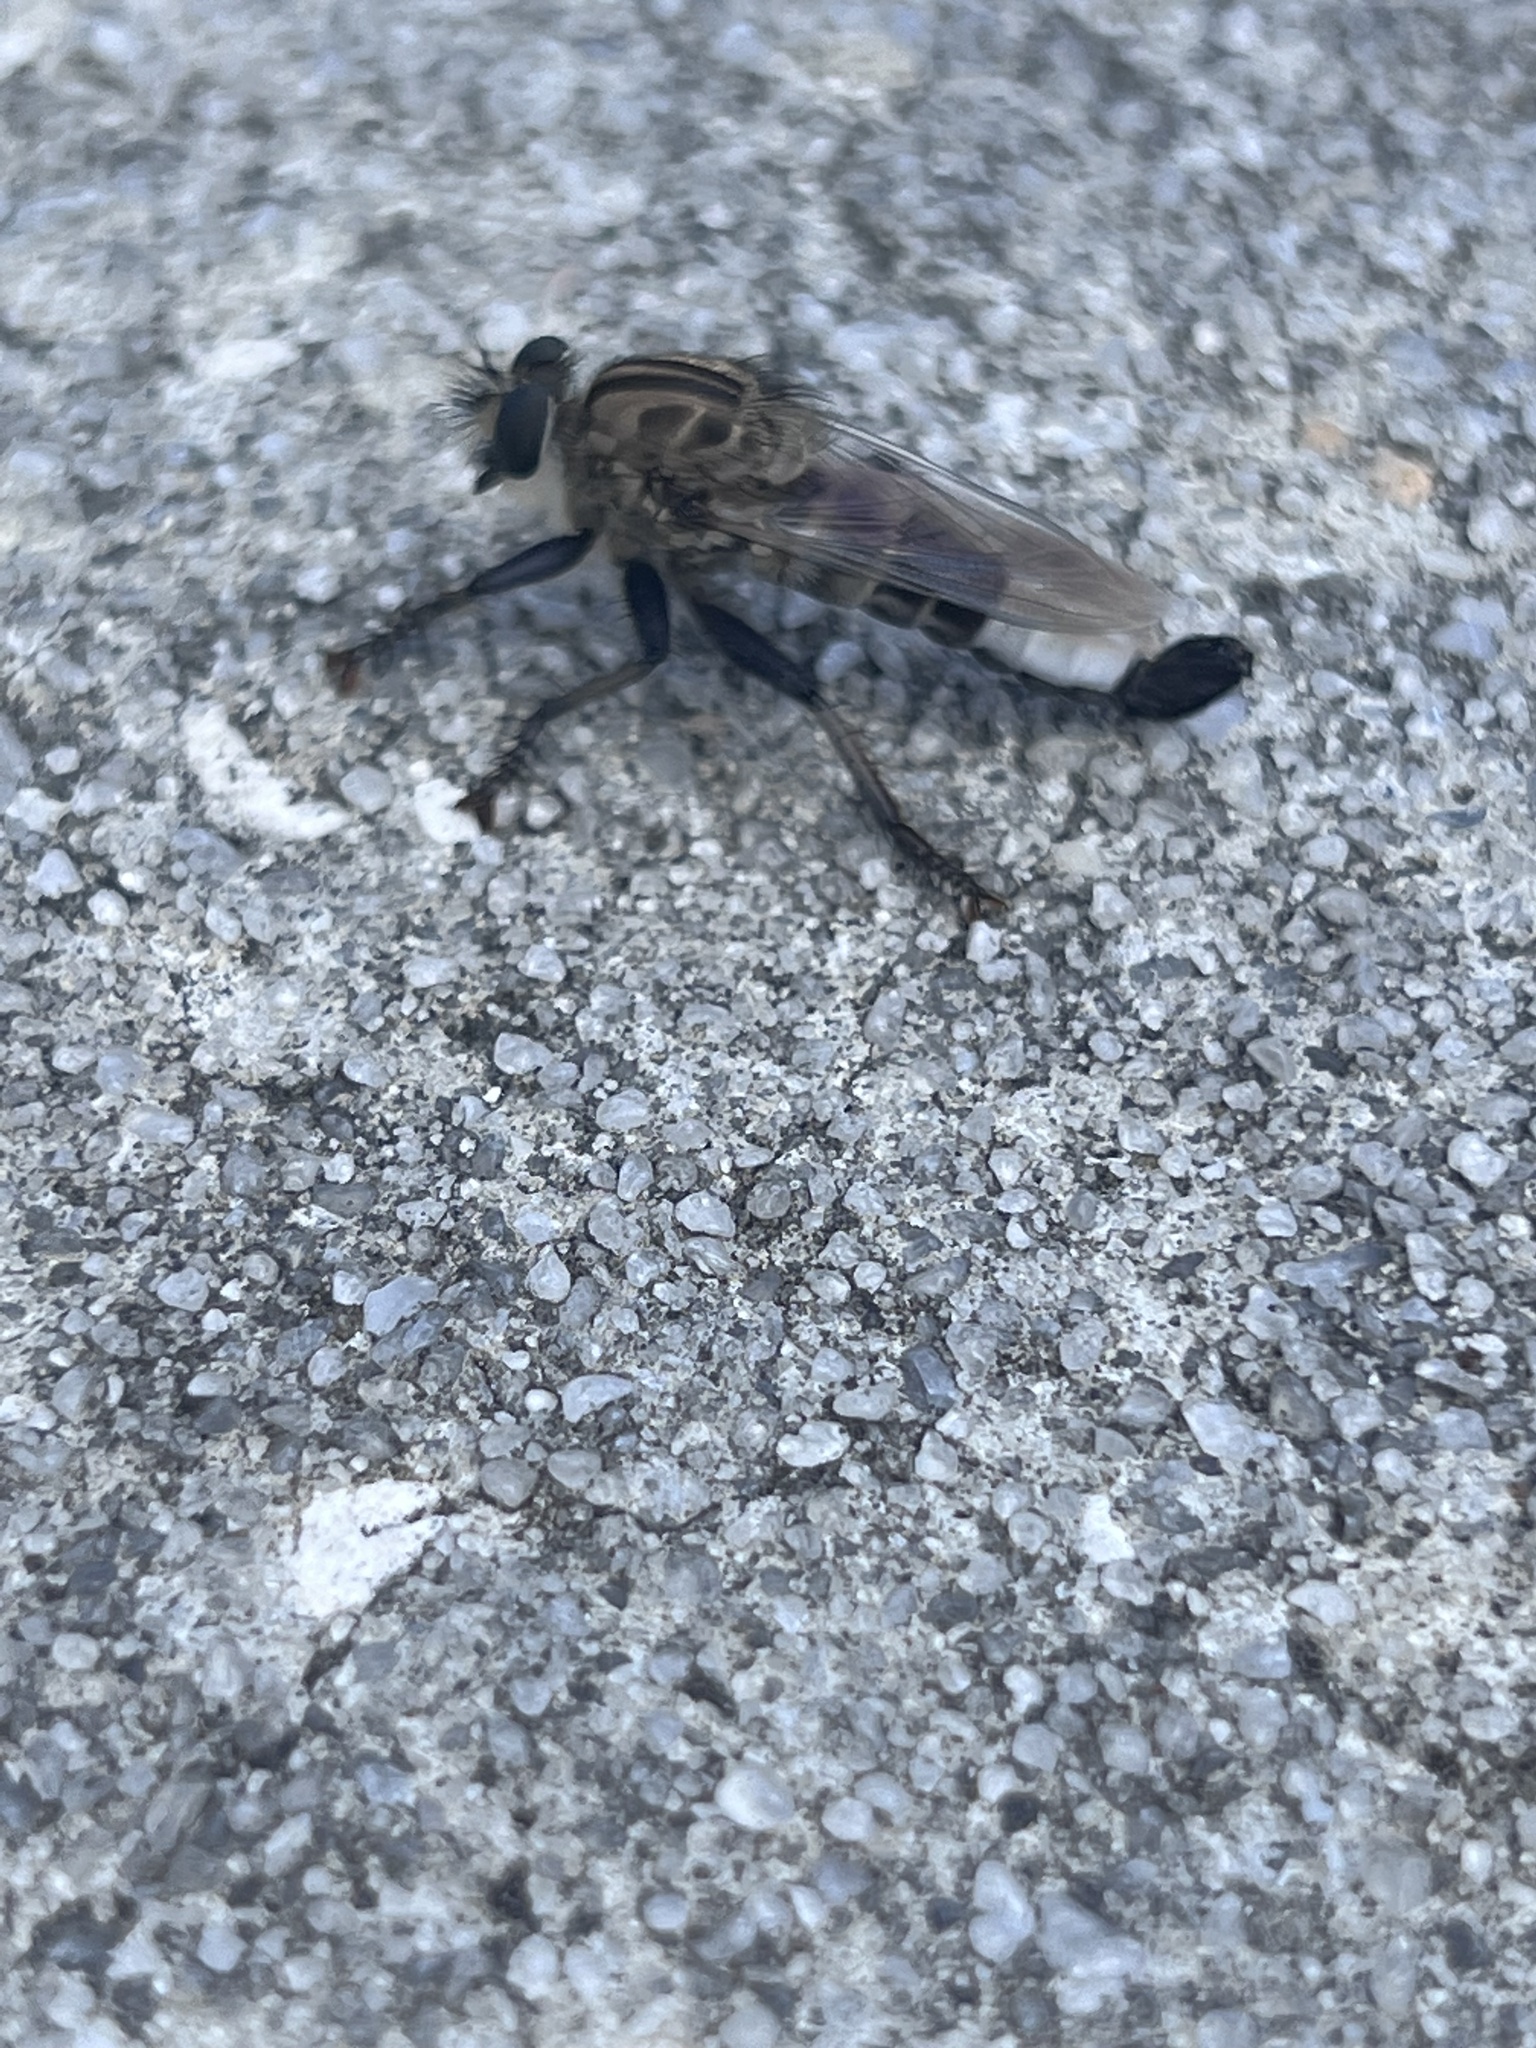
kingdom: Animalia
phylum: Arthropoda
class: Insecta
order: Diptera
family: Asilidae
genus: Efferia
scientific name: Efferia aestuans
